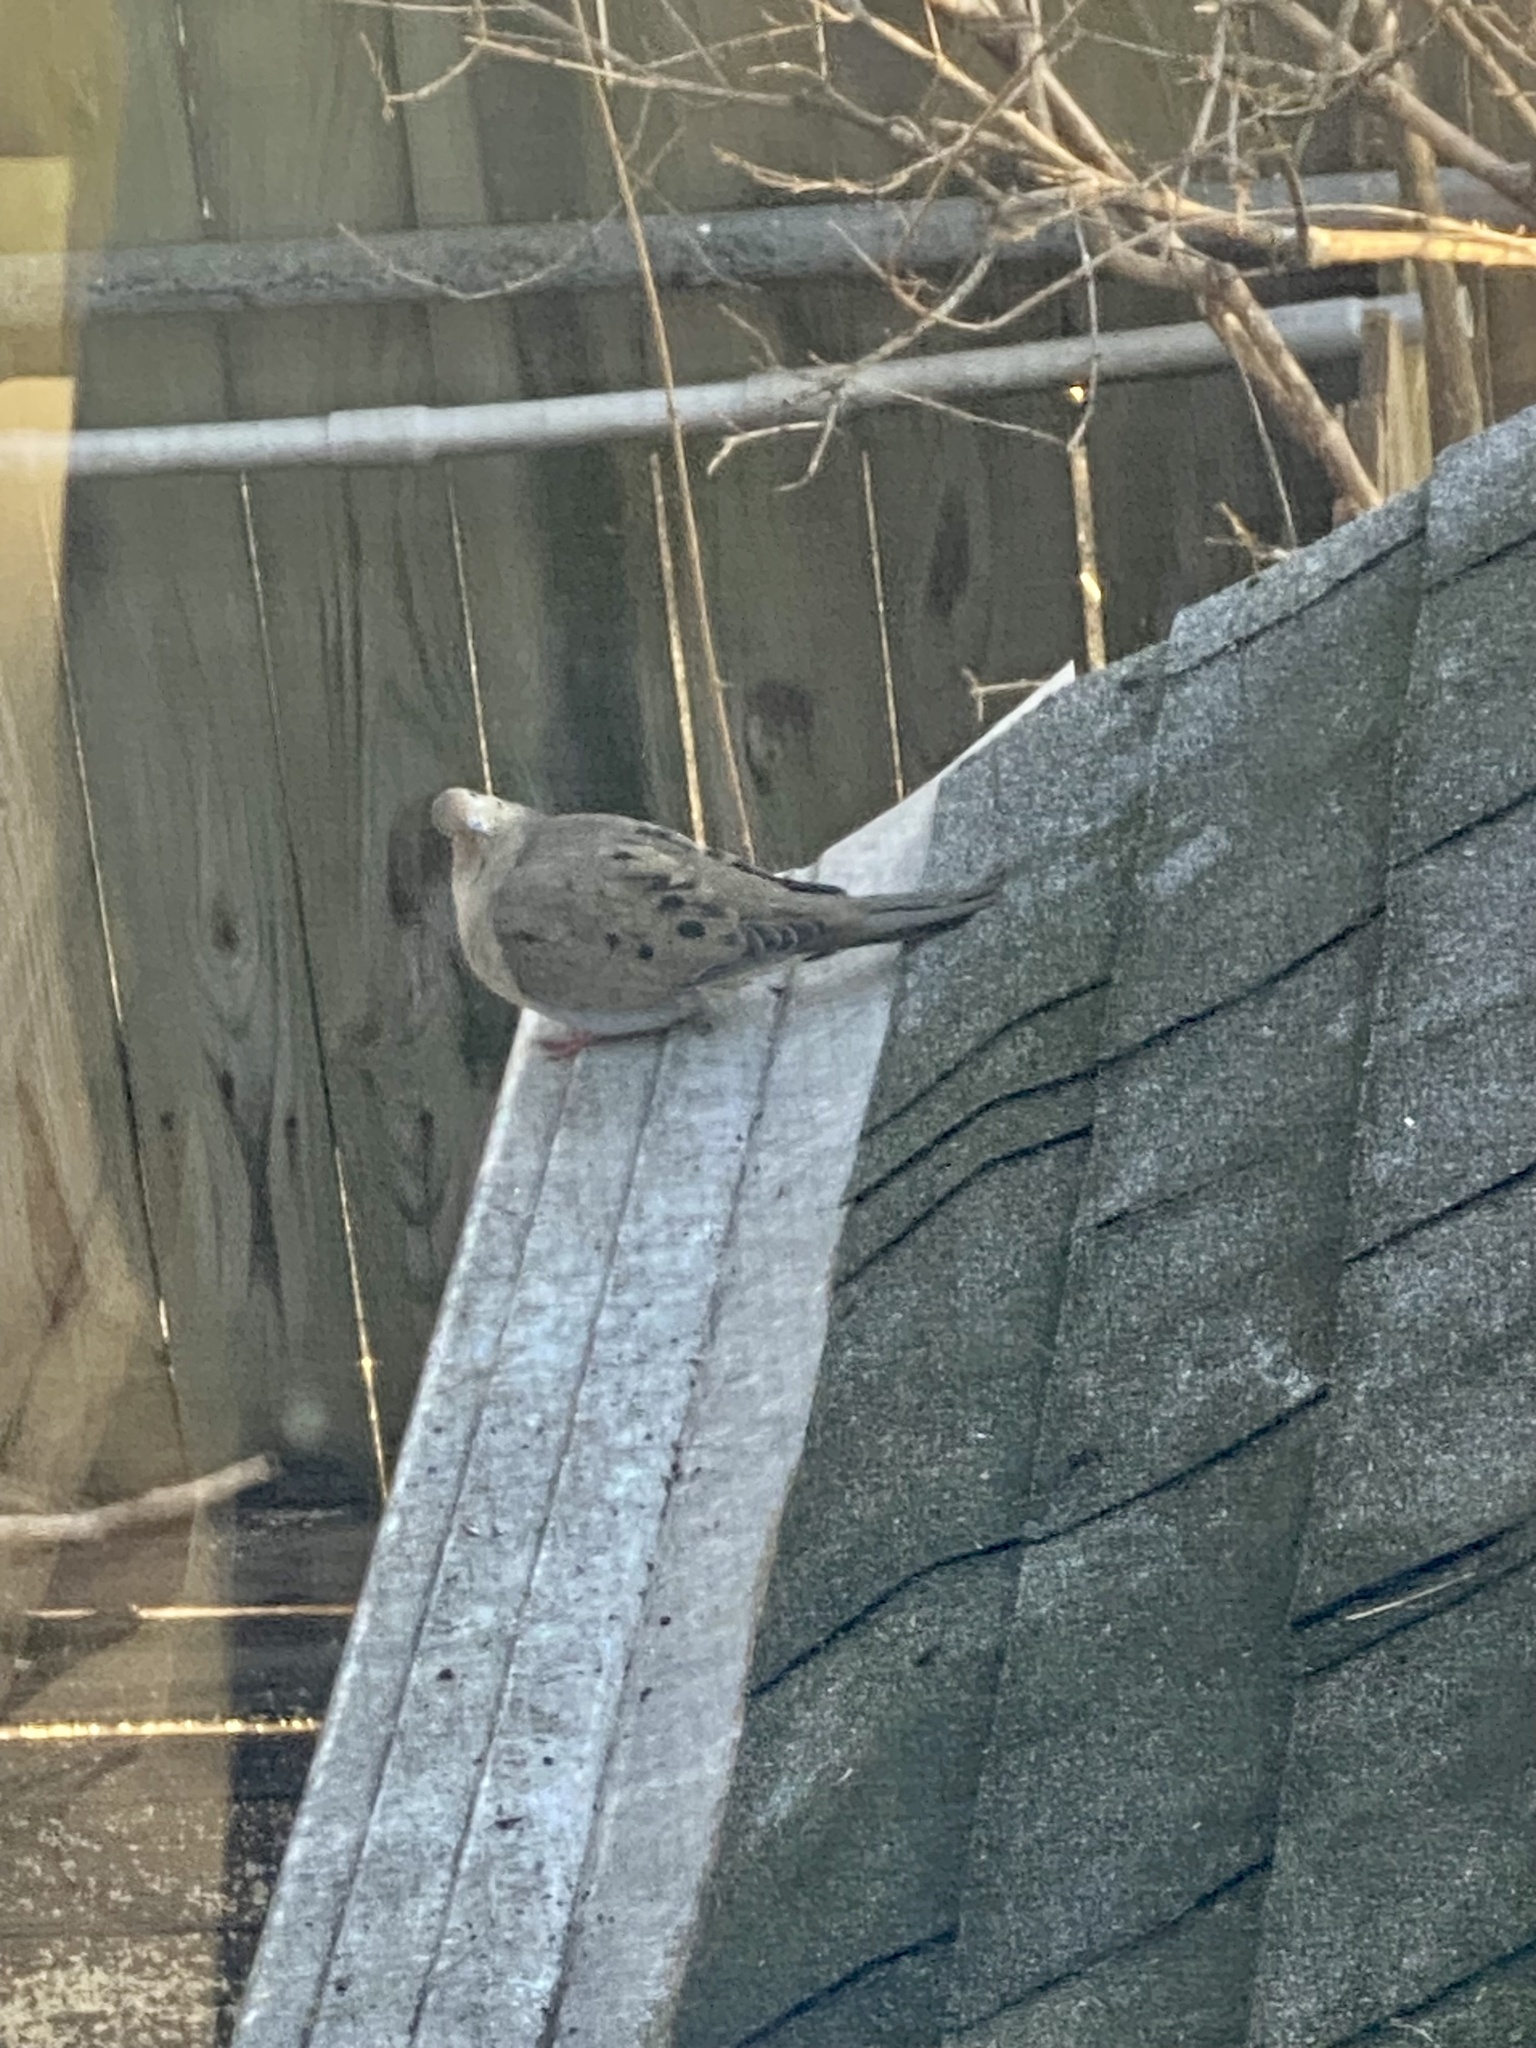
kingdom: Animalia
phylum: Chordata
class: Aves
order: Columbiformes
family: Columbidae
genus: Zenaida
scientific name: Zenaida macroura
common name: Mourning dove
